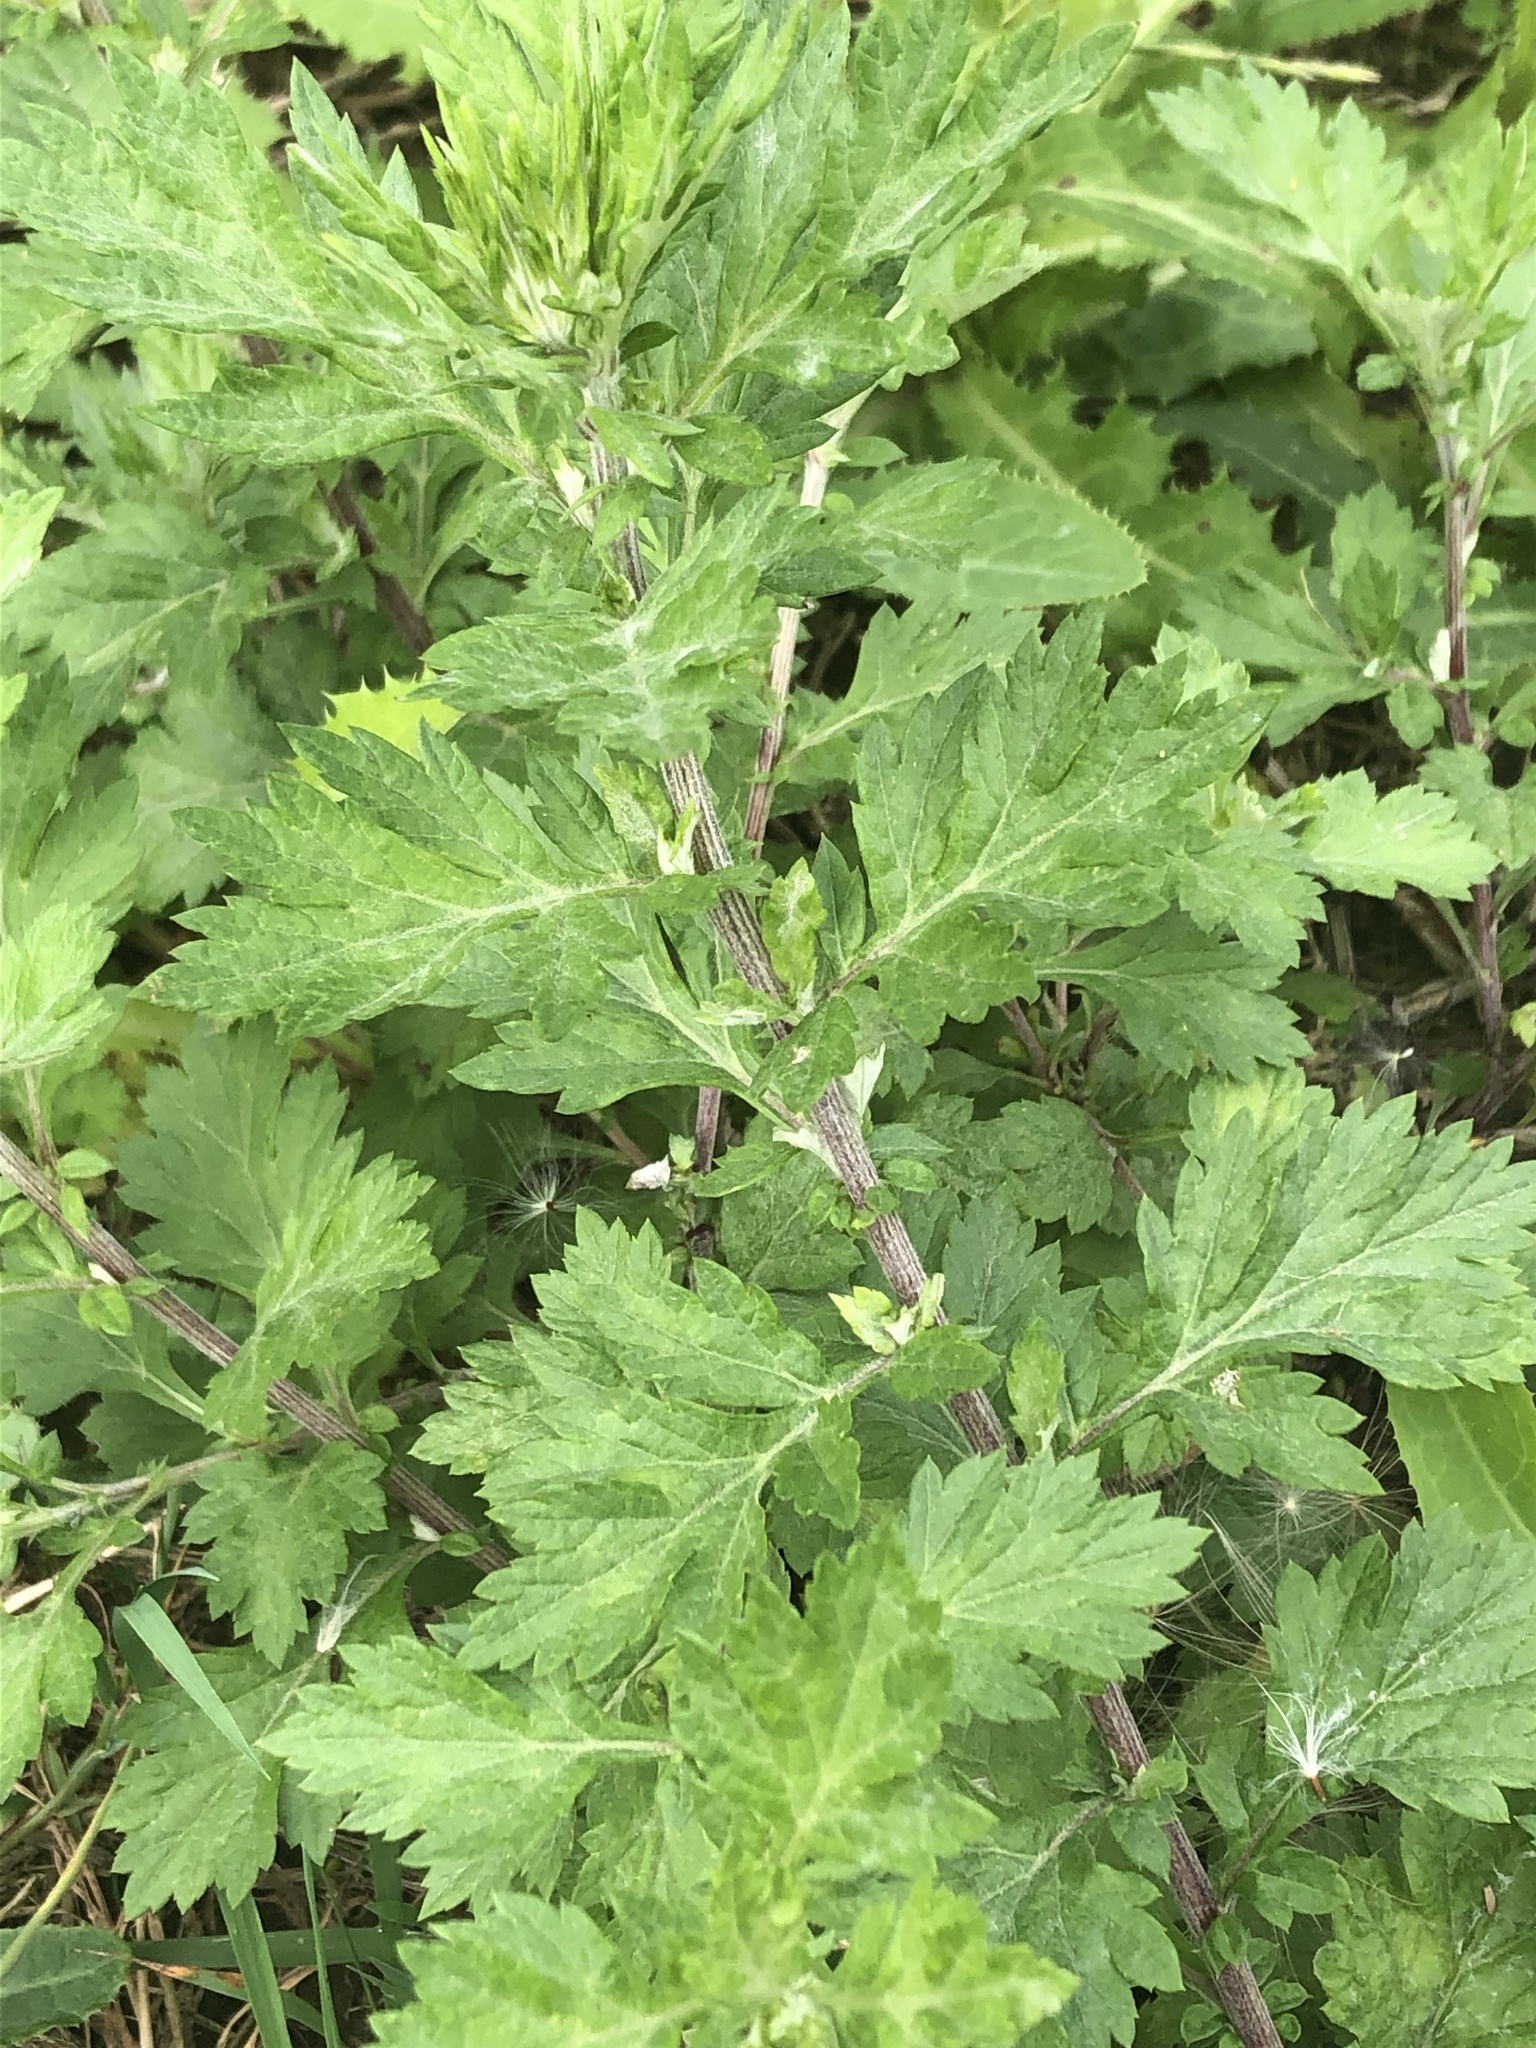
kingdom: Plantae
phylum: Tracheophyta
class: Magnoliopsida
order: Asterales
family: Asteraceae
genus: Artemisia
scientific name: Artemisia vulgaris
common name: Mugwort
